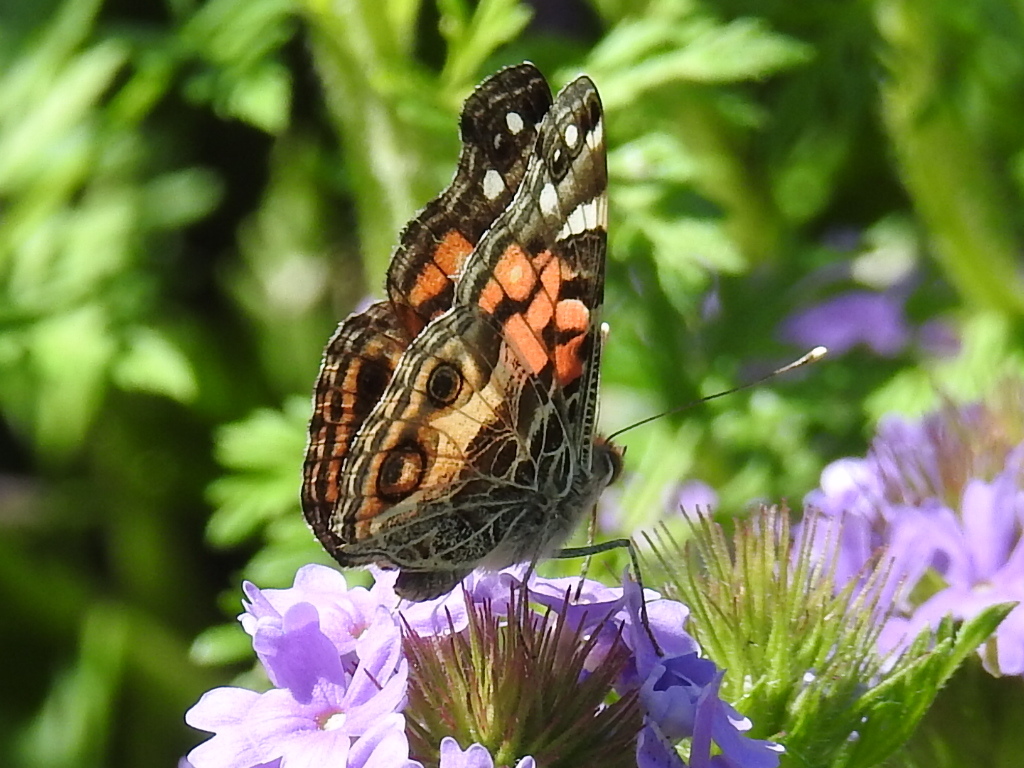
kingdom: Animalia
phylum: Arthropoda
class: Insecta
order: Lepidoptera
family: Nymphalidae
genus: Vanessa
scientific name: Vanessa virginiensis
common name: American lady
